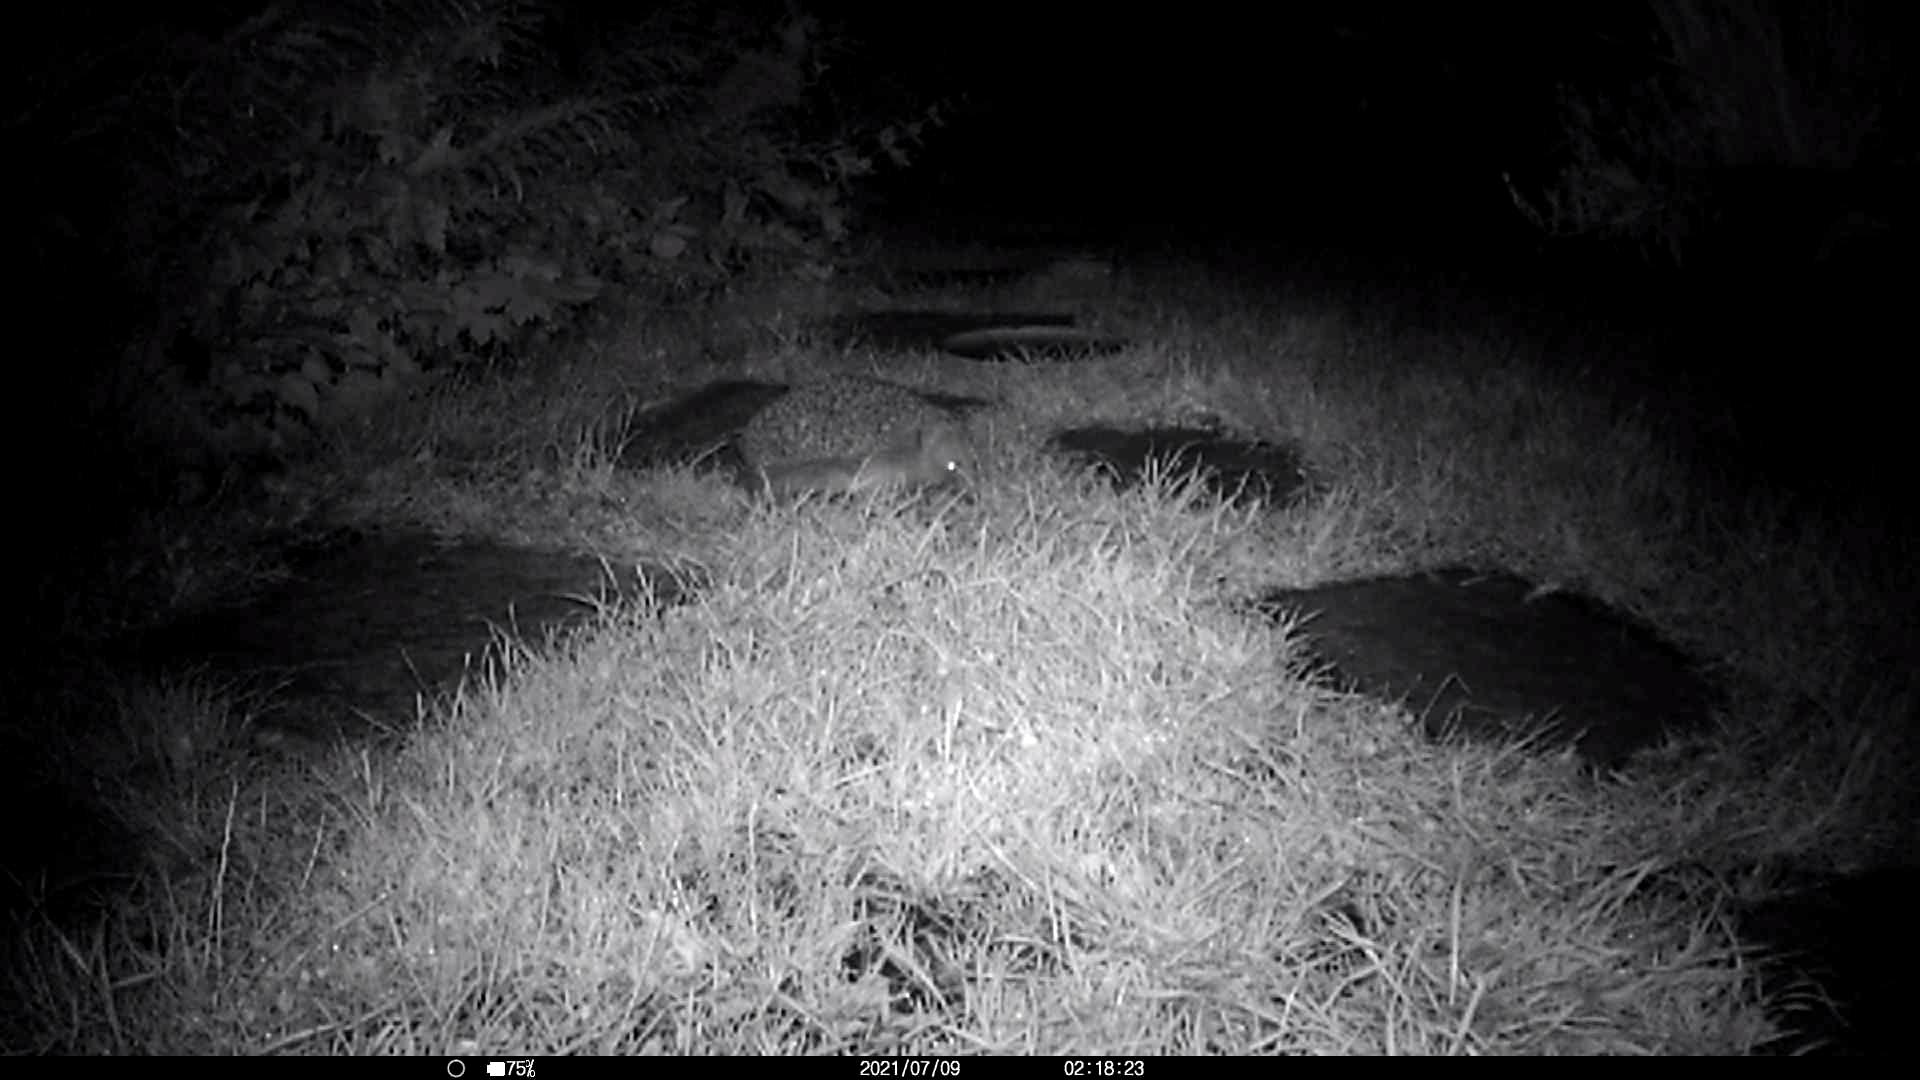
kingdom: Animalia
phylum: Chordata
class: Mammalia
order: Erinaceomorpha
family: Erinaceidae
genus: Erinaceus
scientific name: Erinaceus europaeus
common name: West european hedgehog
